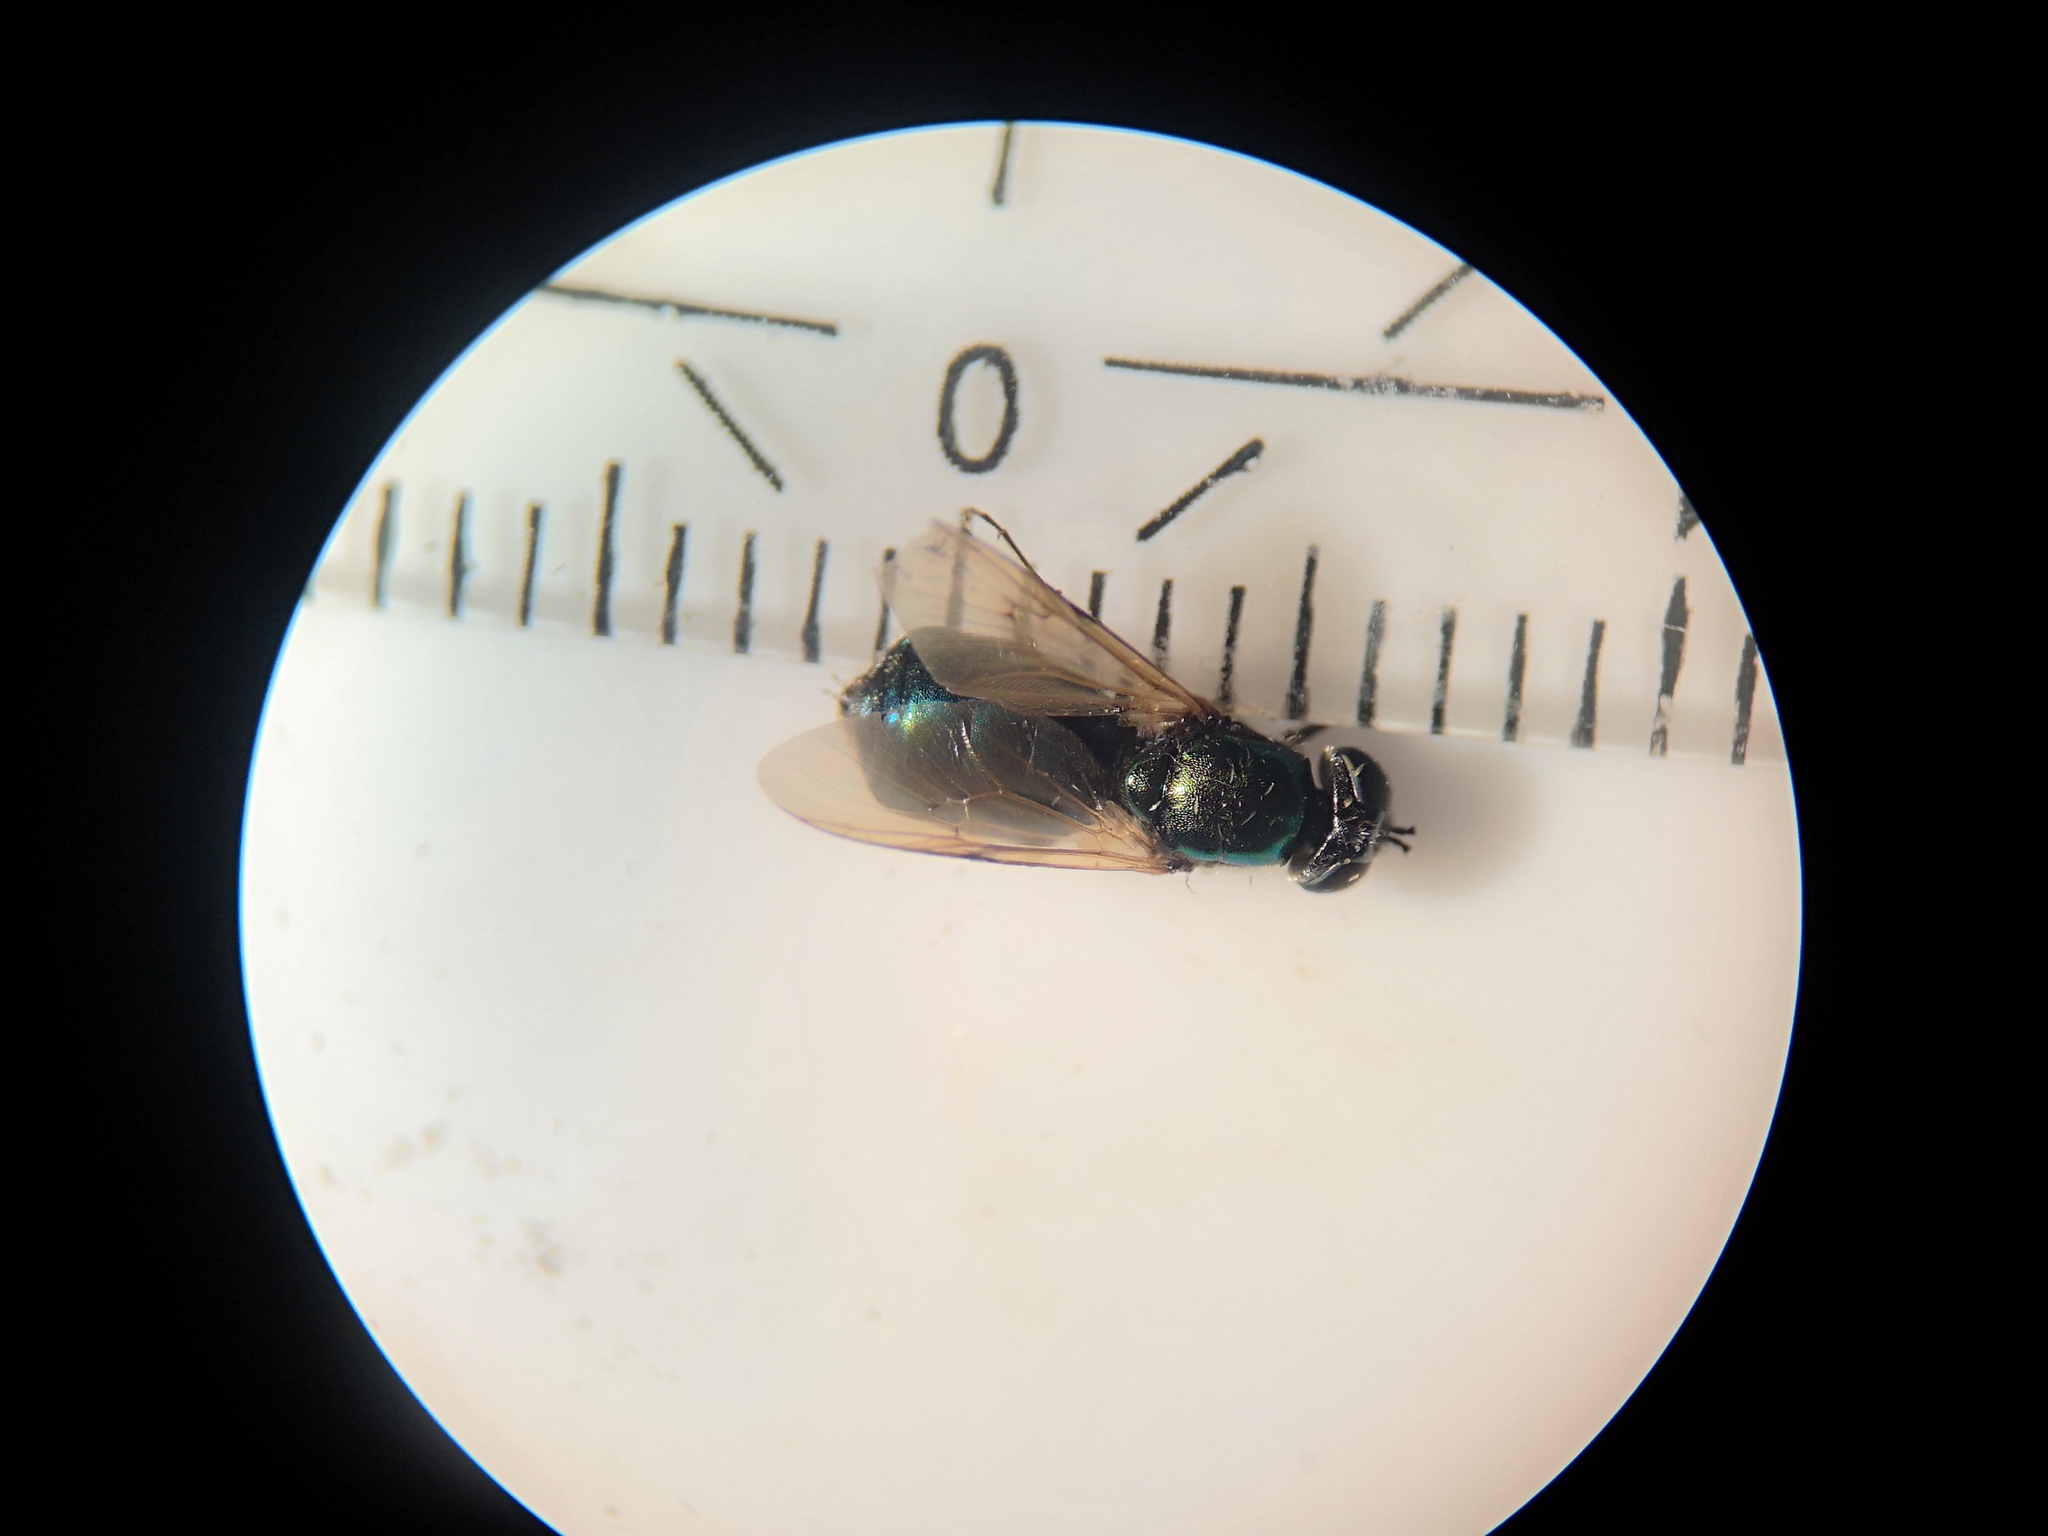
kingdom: Animalia
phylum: Arthropoda
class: Insecta
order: Diptera
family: Stratiomyidae
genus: Chloromyia
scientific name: Chloromyia formosa
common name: Soldier fly
